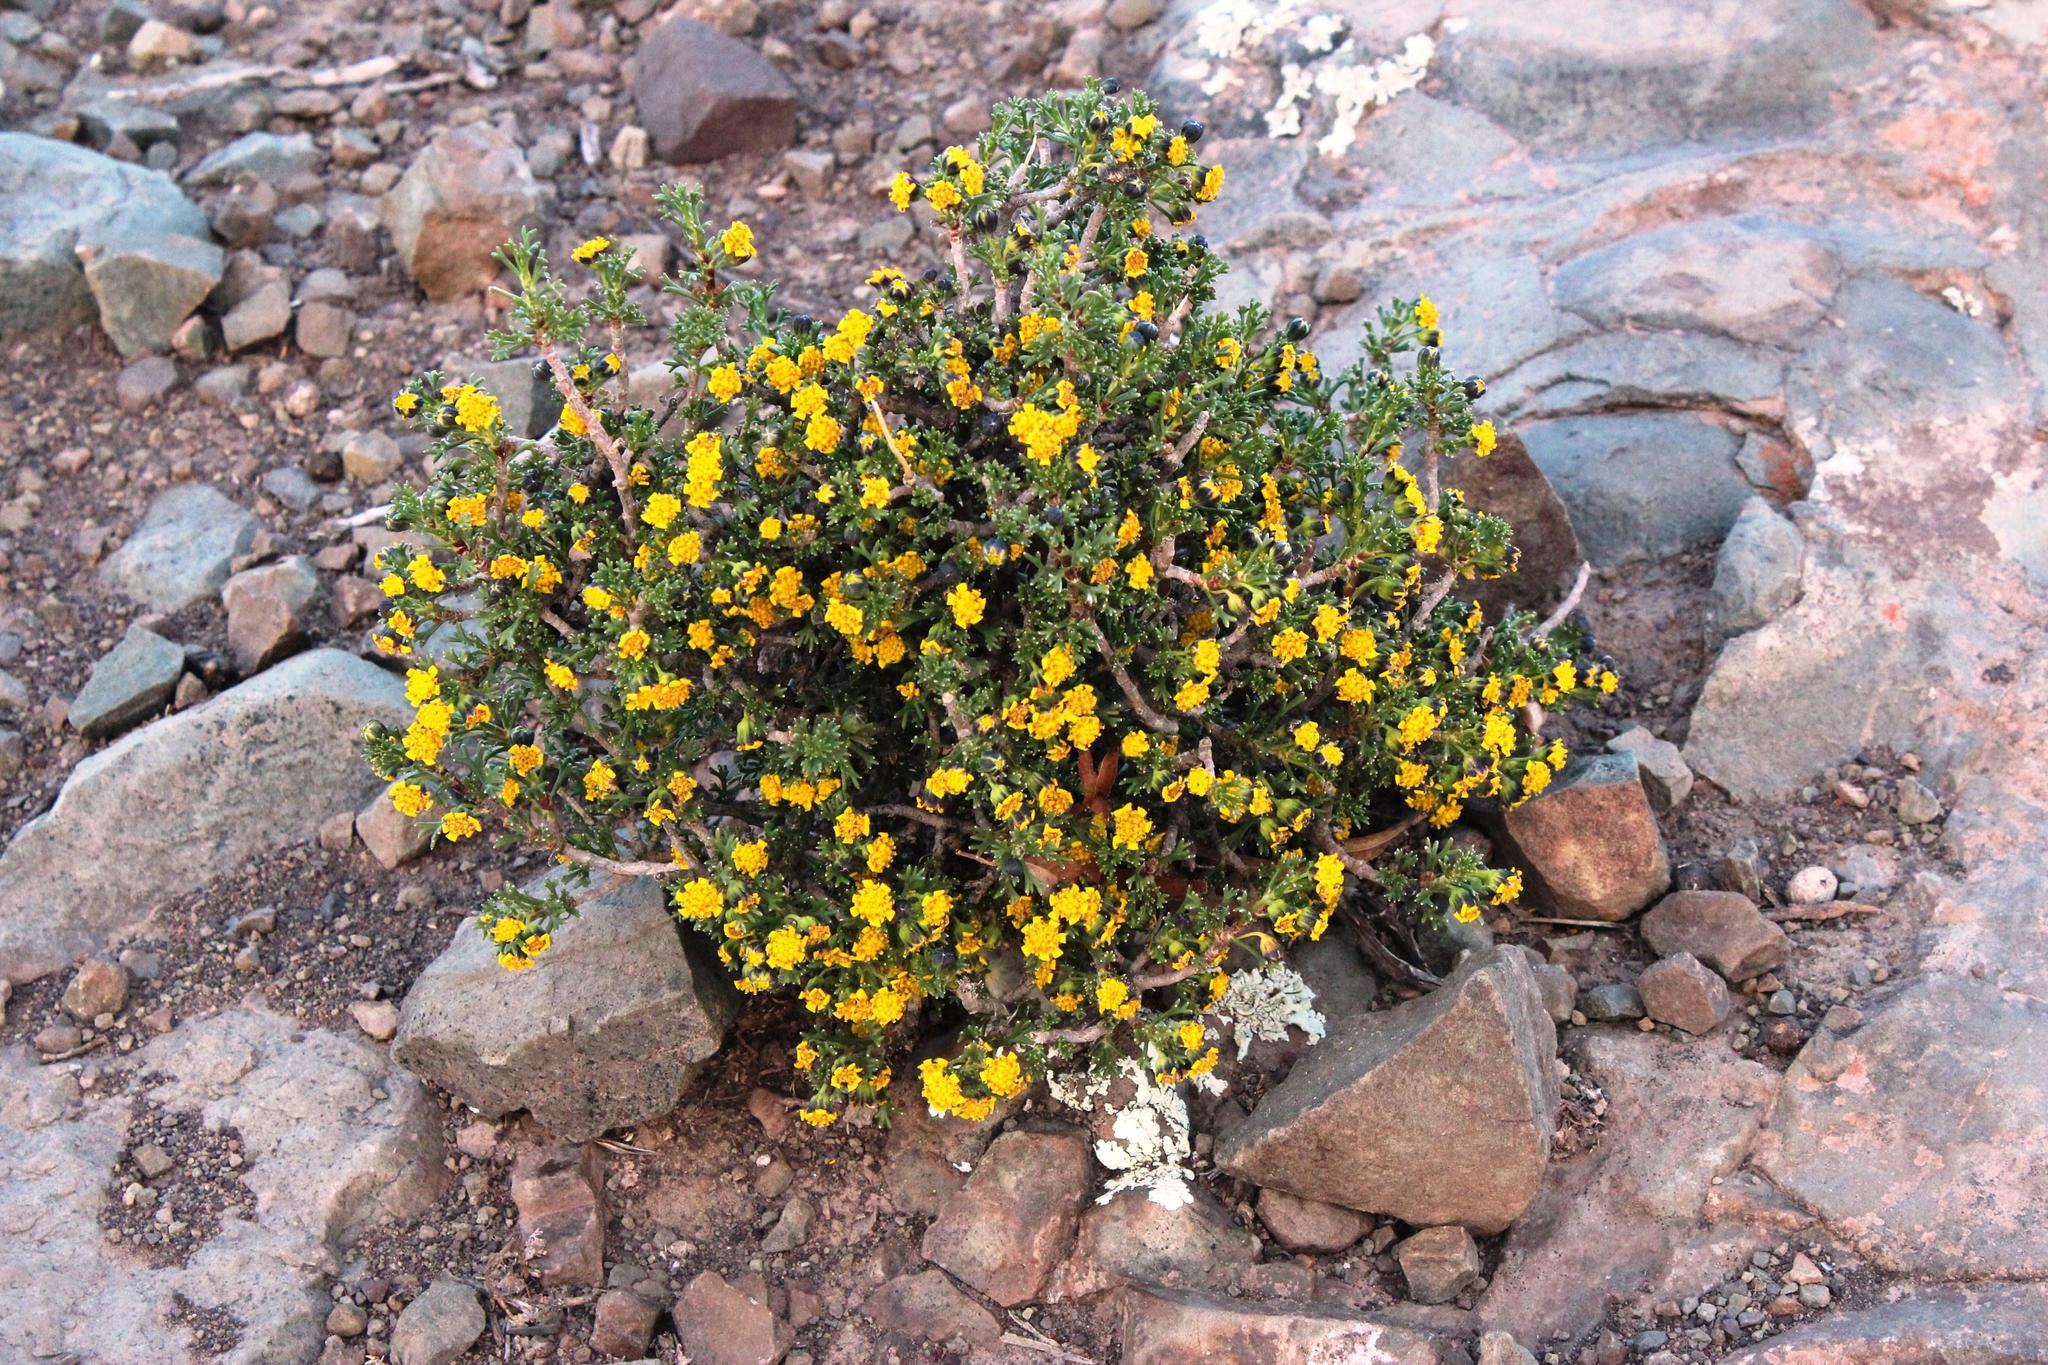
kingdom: Plantae
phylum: Tracheophyta
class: Magnoliopsida
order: Asterales
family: Asteraceae
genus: Euryops
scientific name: Euryops subcarnosus
